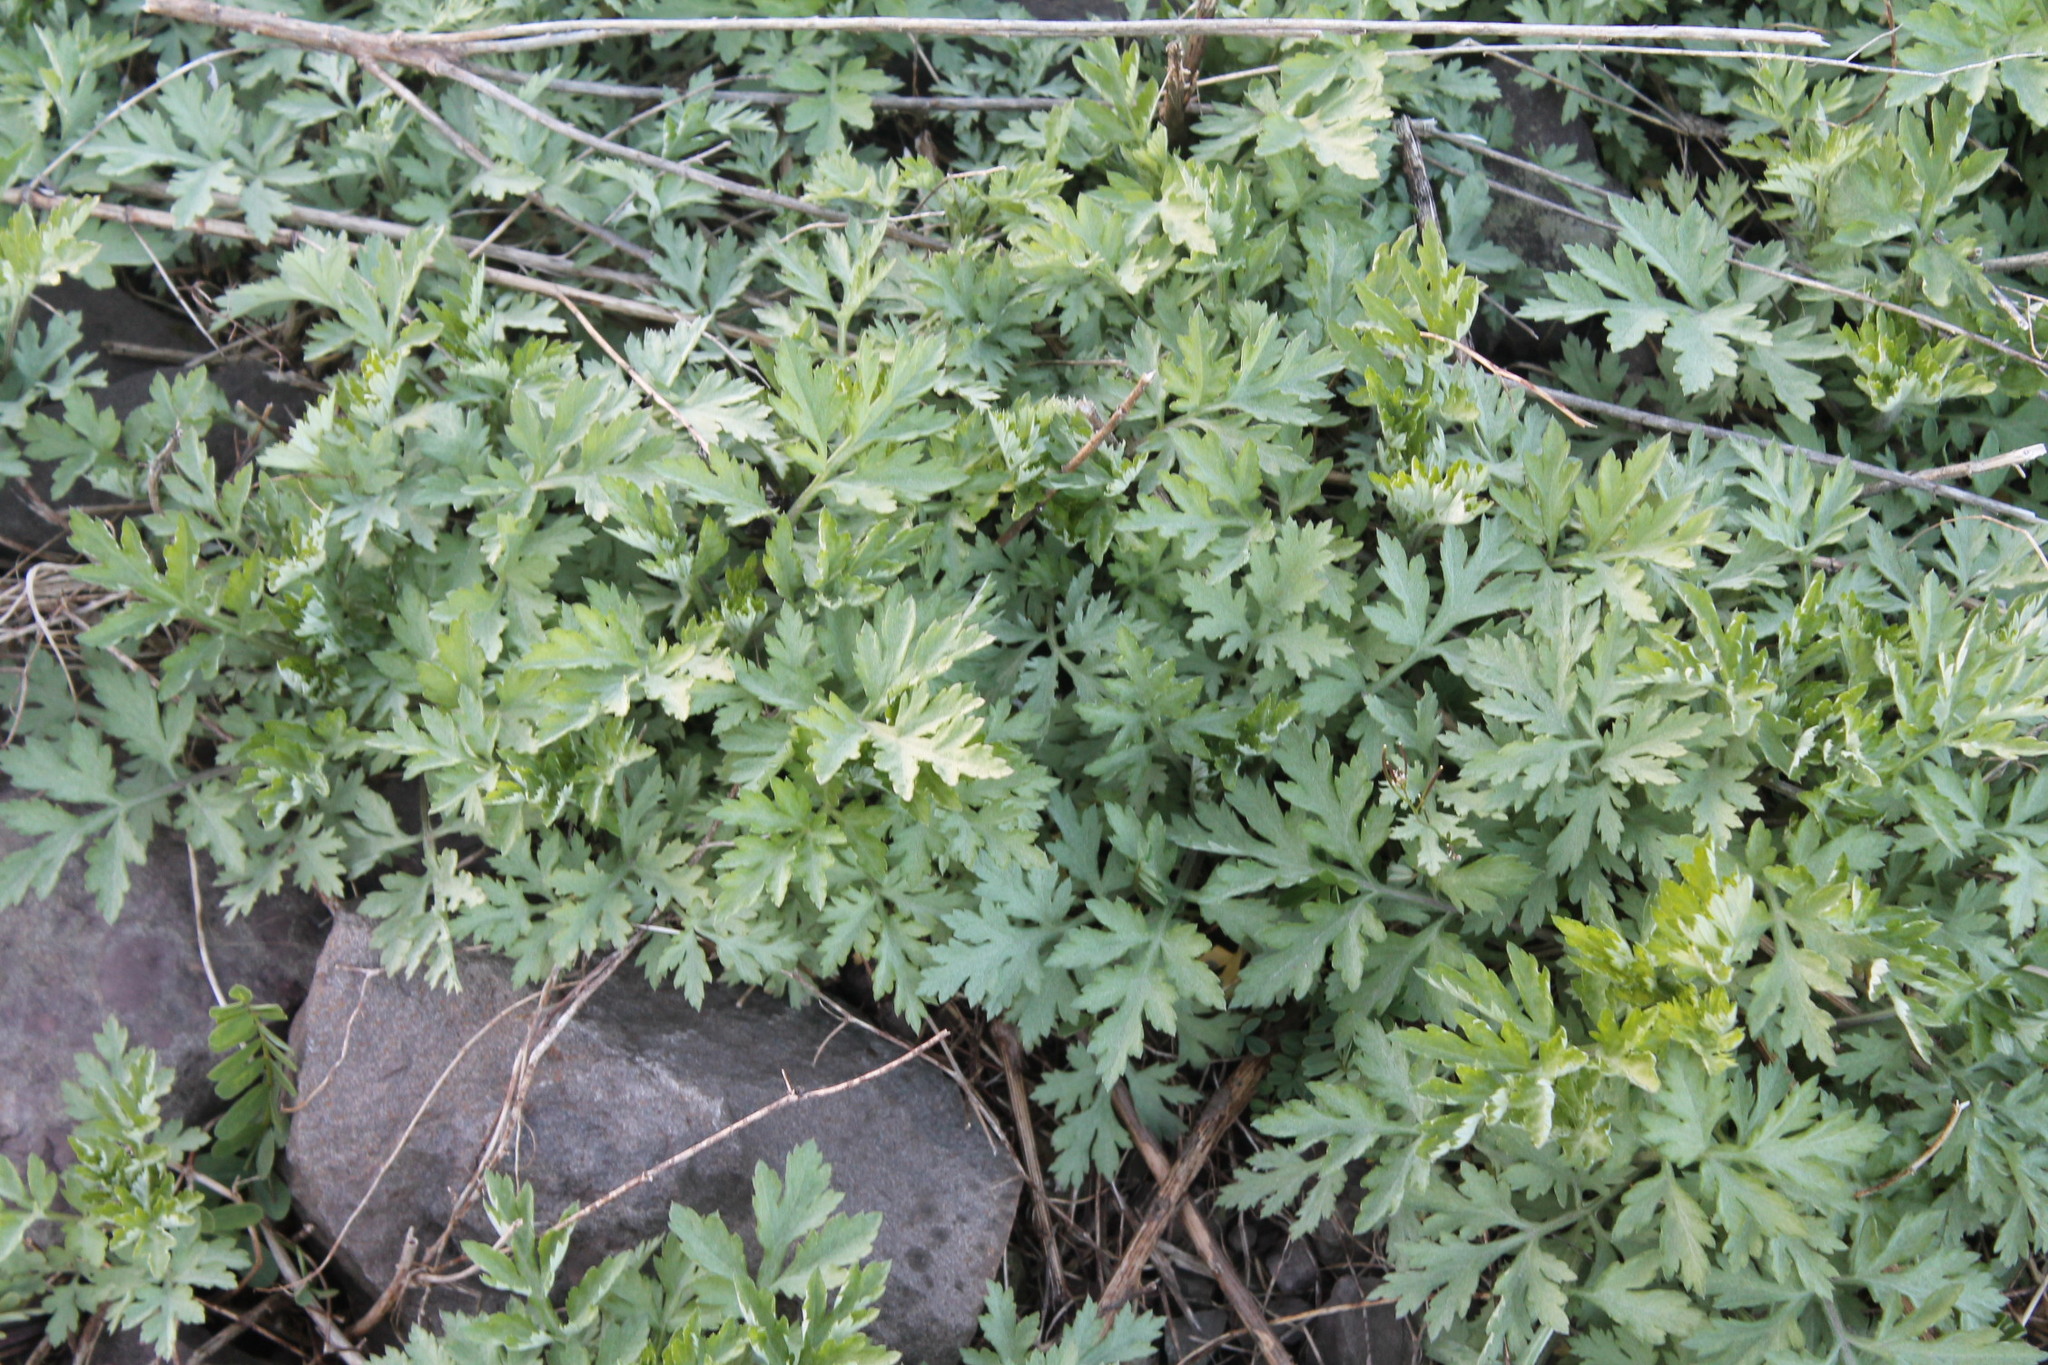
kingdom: Plantae
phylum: Tracheophyta
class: Magnoliopsida
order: Asterales
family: Asteraceae
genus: Artemisia
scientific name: Artemisia vulgaris
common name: Mugwort
